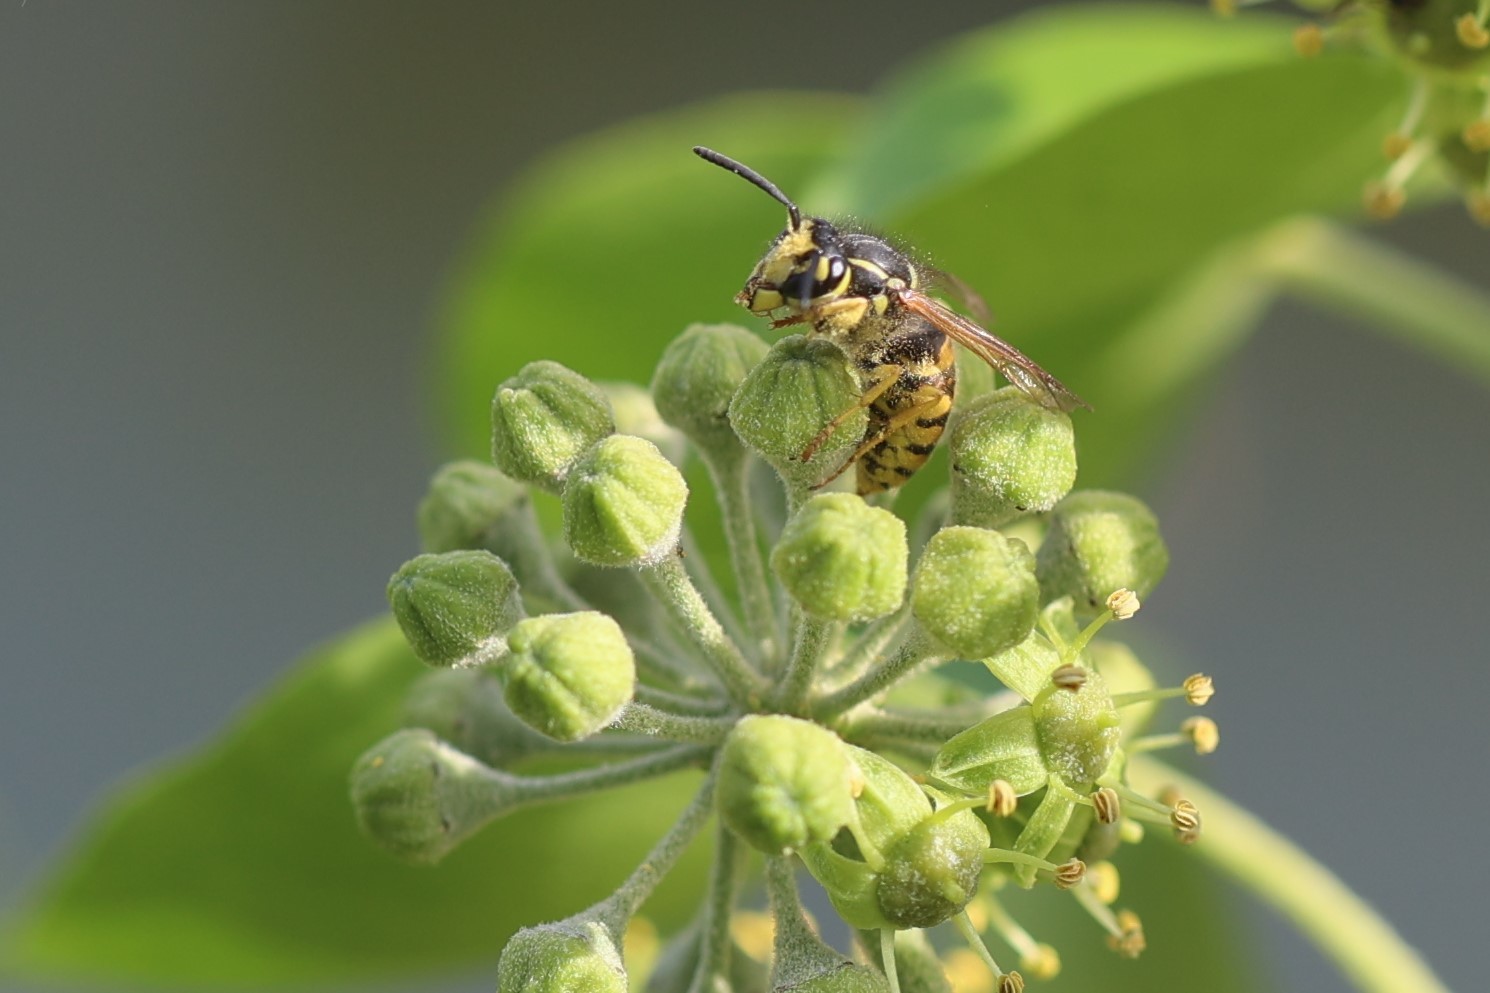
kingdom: Animalia
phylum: Arthropoda
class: Insecta
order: Hymenoptera
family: Vespidae
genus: Vespula
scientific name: Vespula germanica
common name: German wasp
